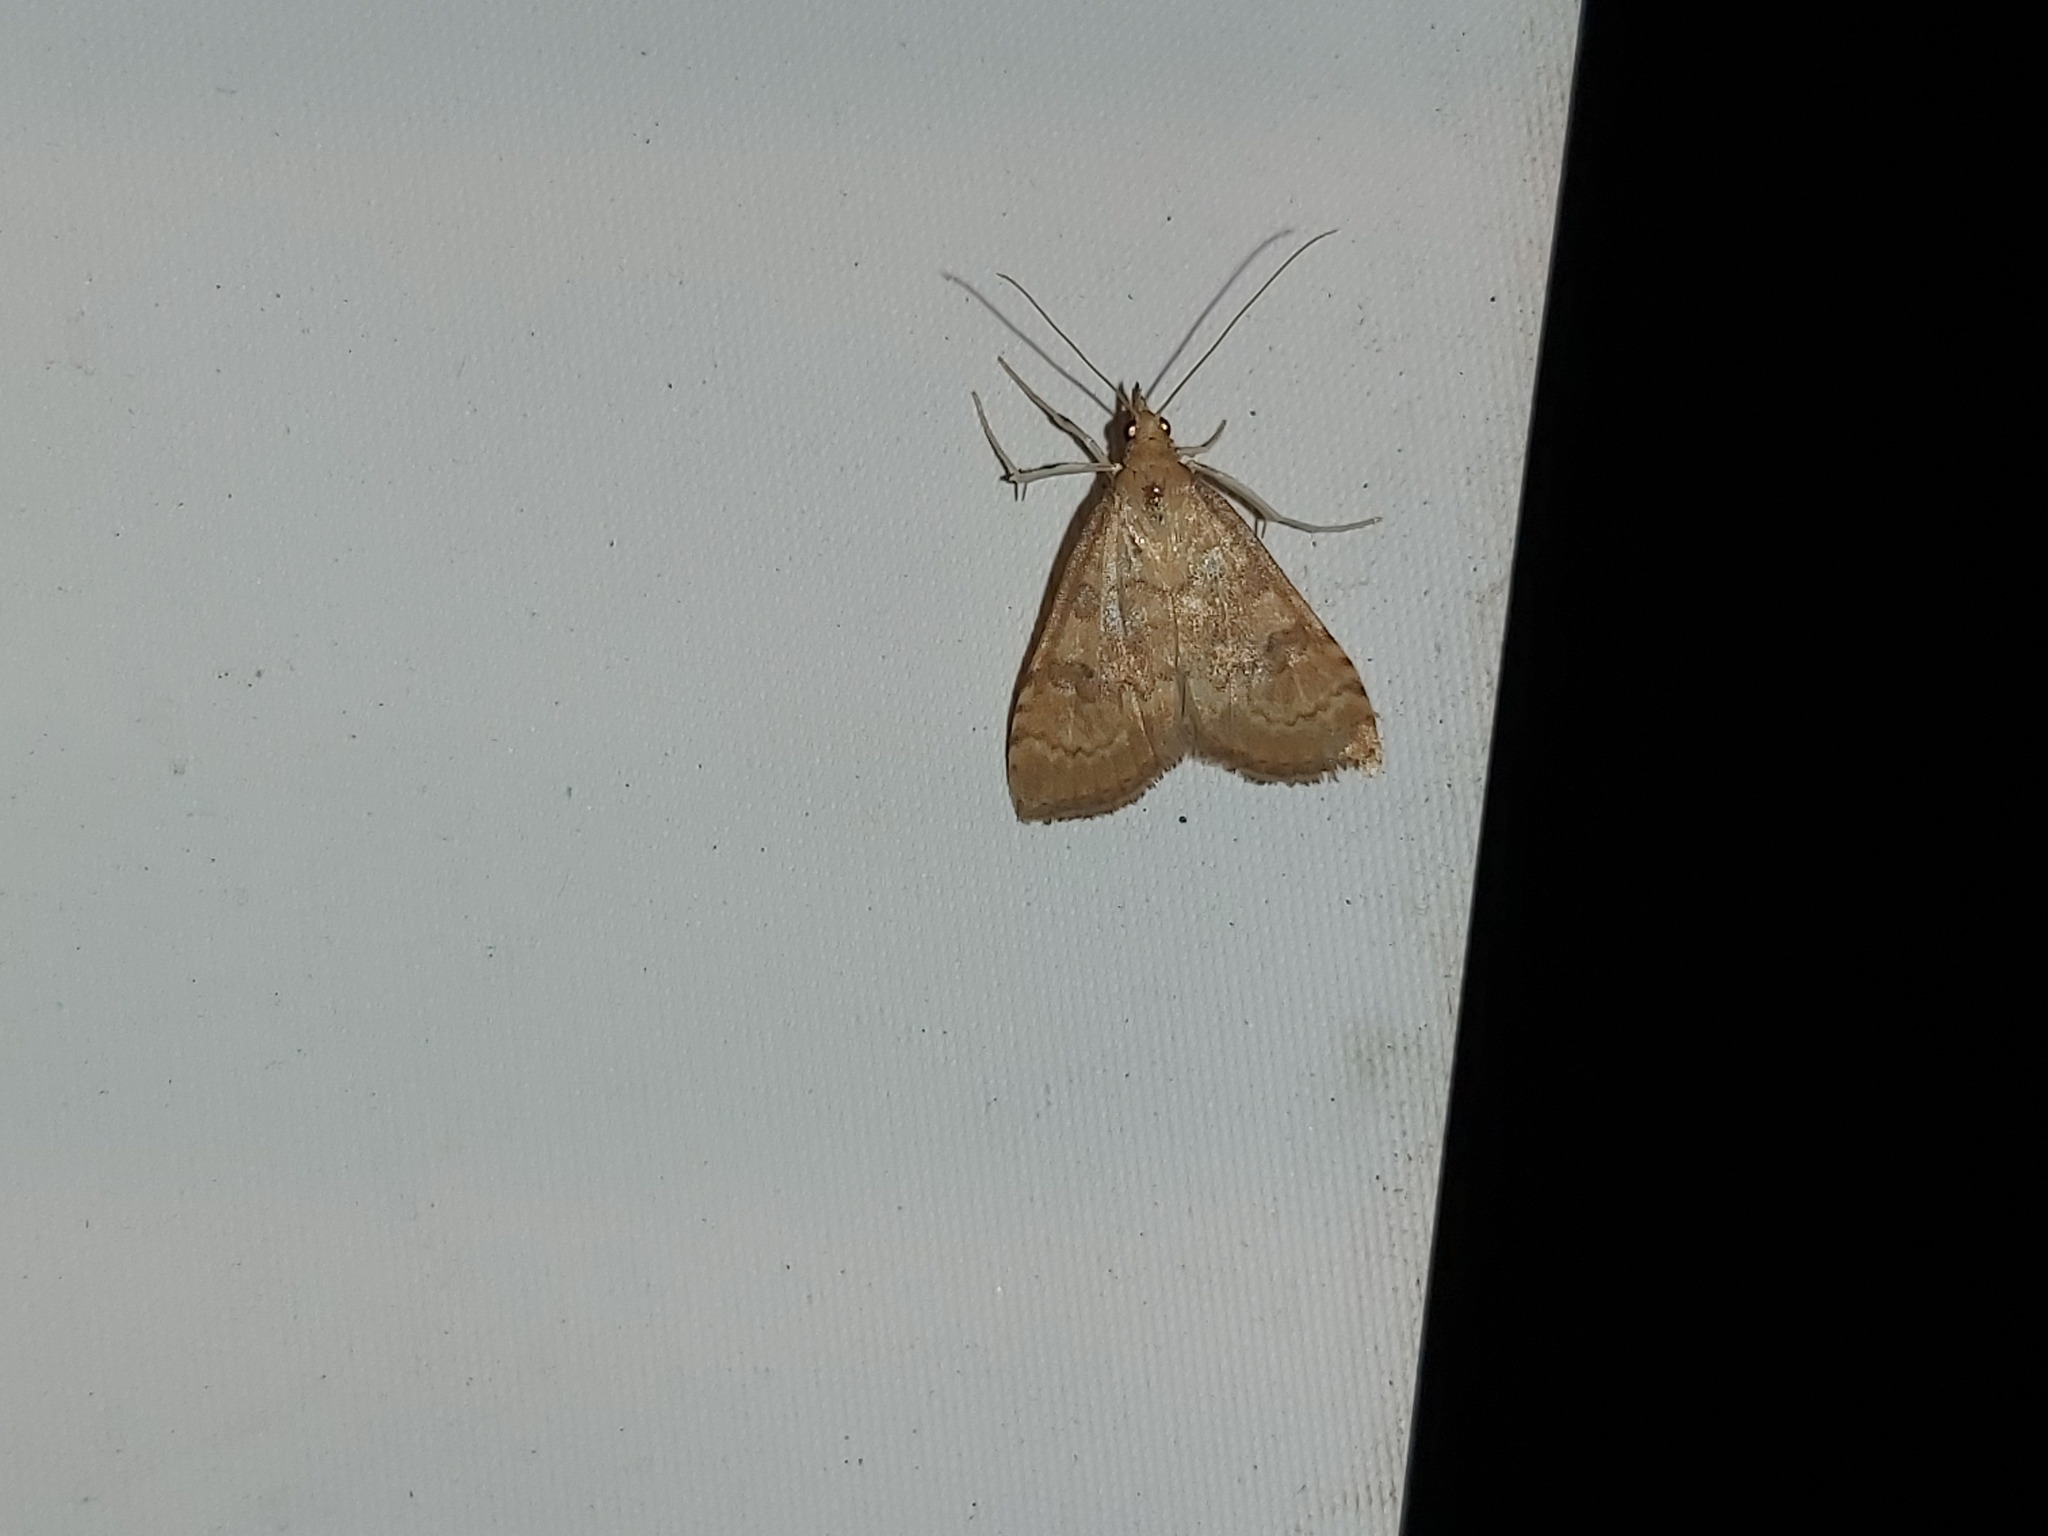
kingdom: Animalia
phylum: Arthropoda
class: Insecta
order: Lepidoptera
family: Crambidae
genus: Udea
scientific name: Udea fulvalis
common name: Fulvous pearl
